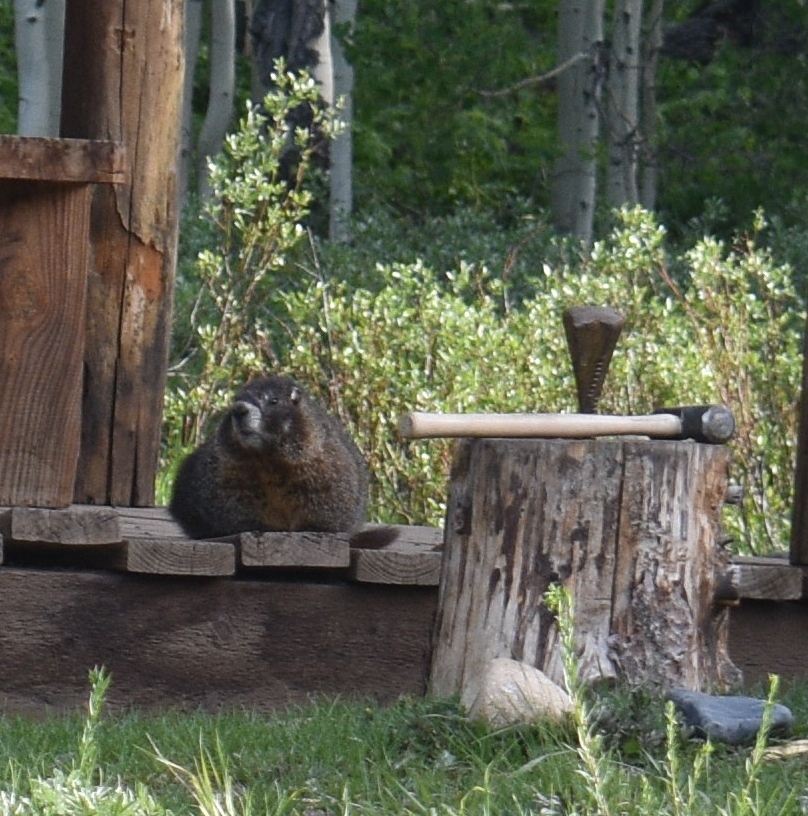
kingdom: Animalia
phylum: Chordata
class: Mammalia
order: Rodentia
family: Sciuridae
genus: Marmota
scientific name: Marmota flaviventris
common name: Yellow-bellied marmot
